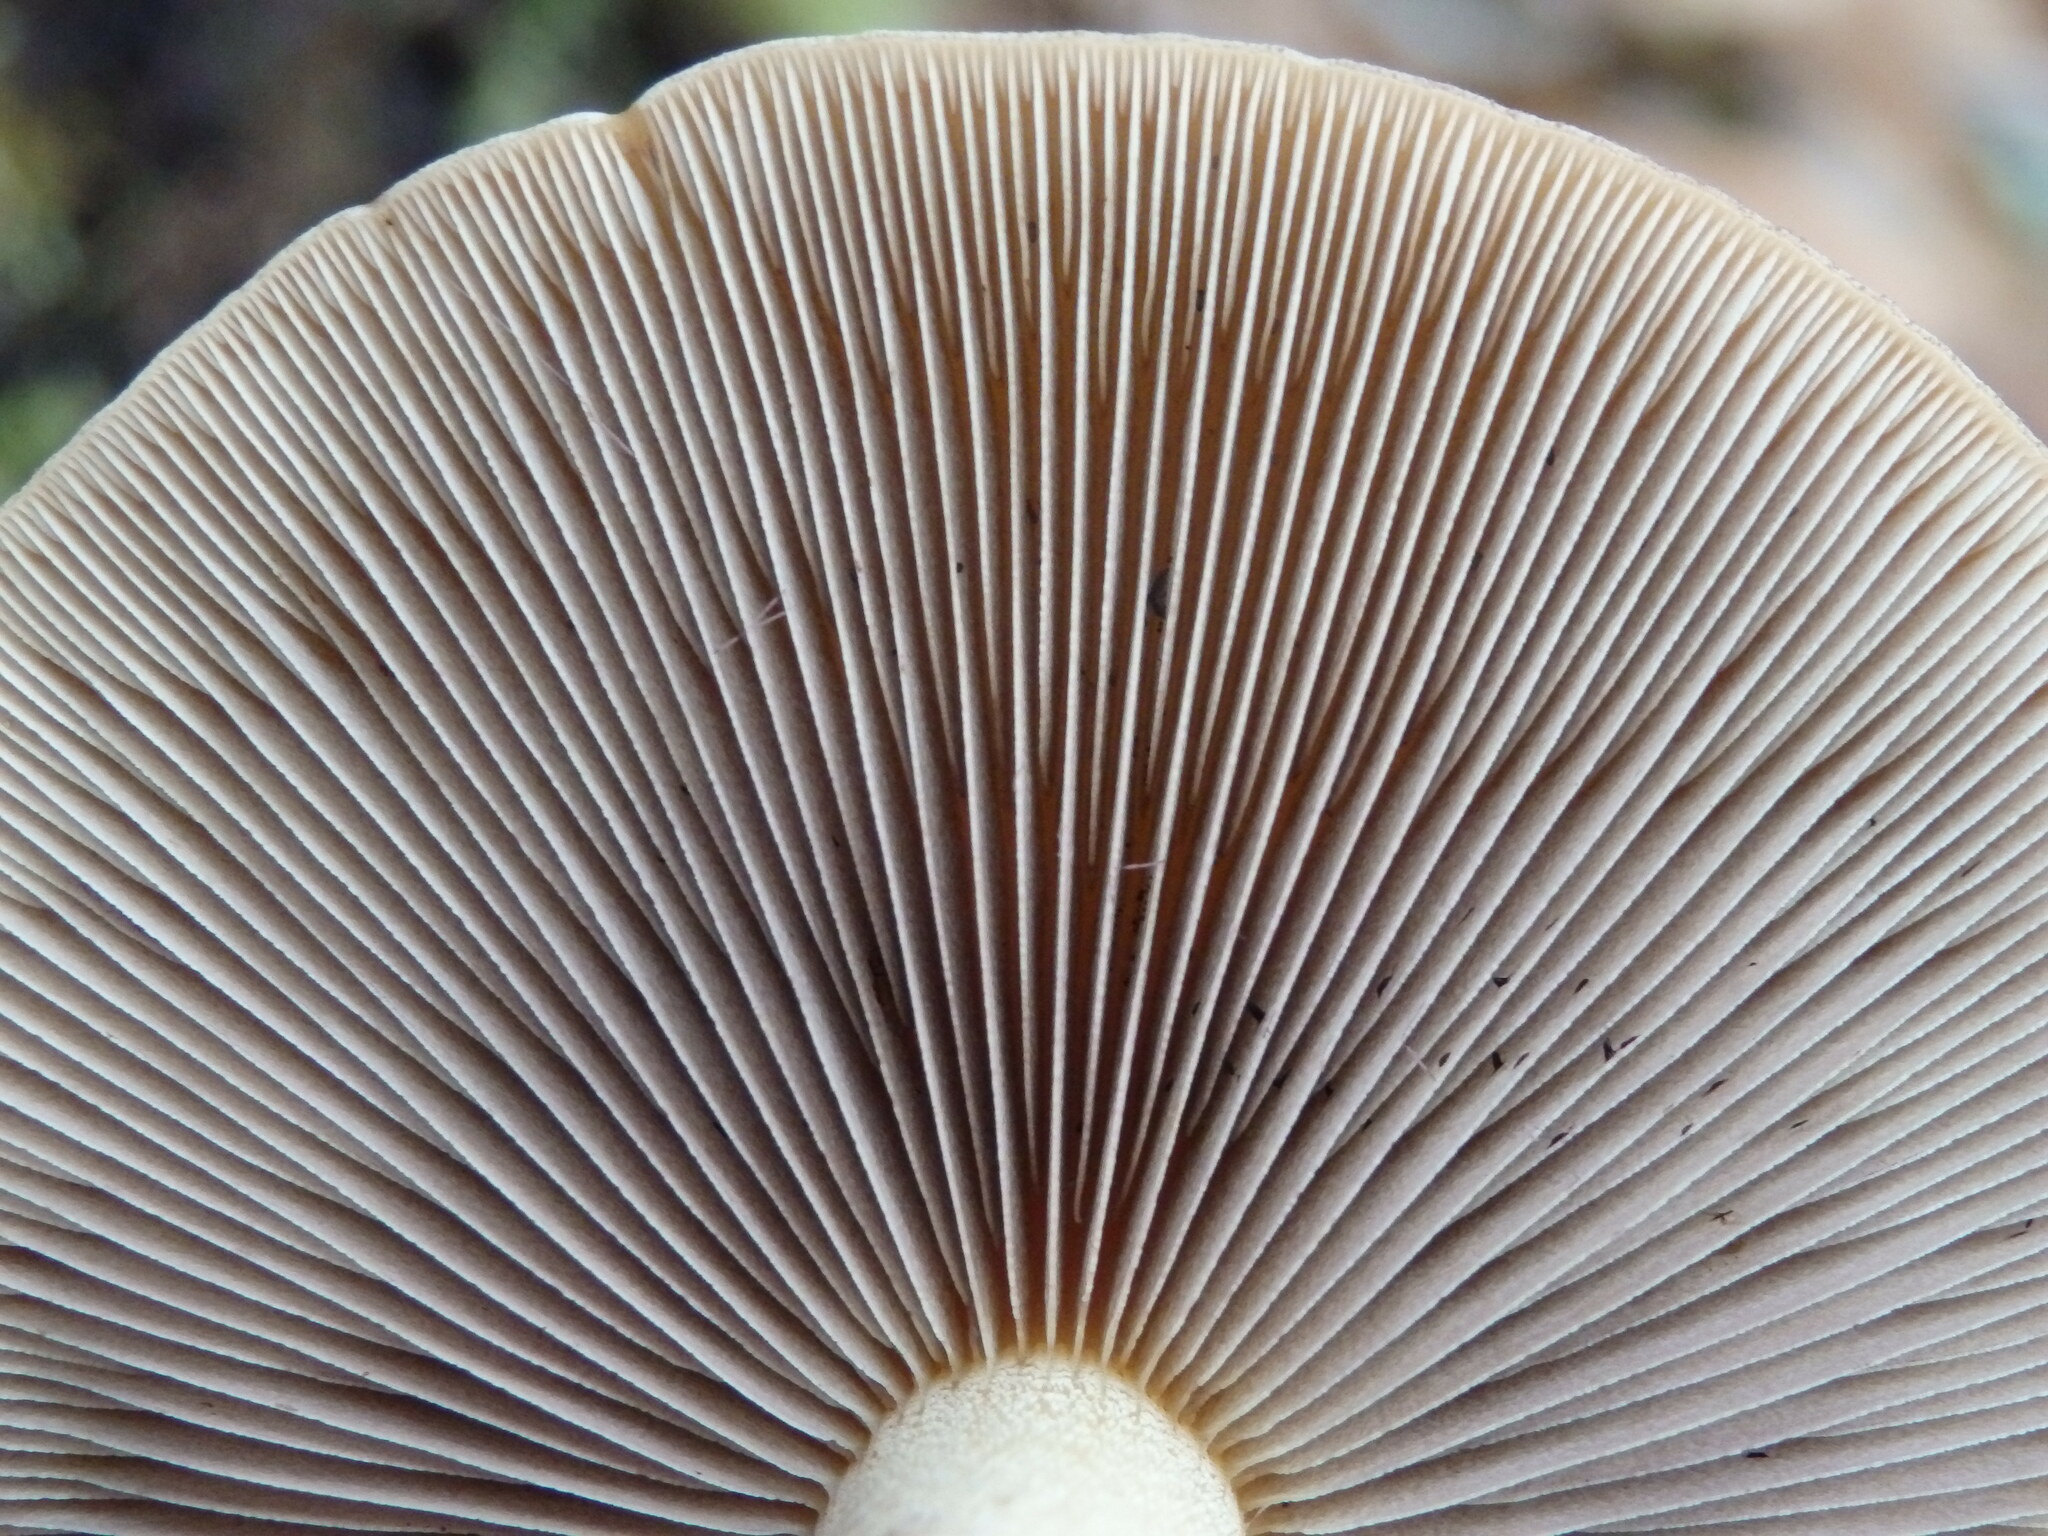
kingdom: Fungi
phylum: Basidiomycota
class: Agaricomycetes
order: Agaricales
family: Strophariaceae
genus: Hypholoma
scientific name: Hypholoma lateritium
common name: Brick caps
